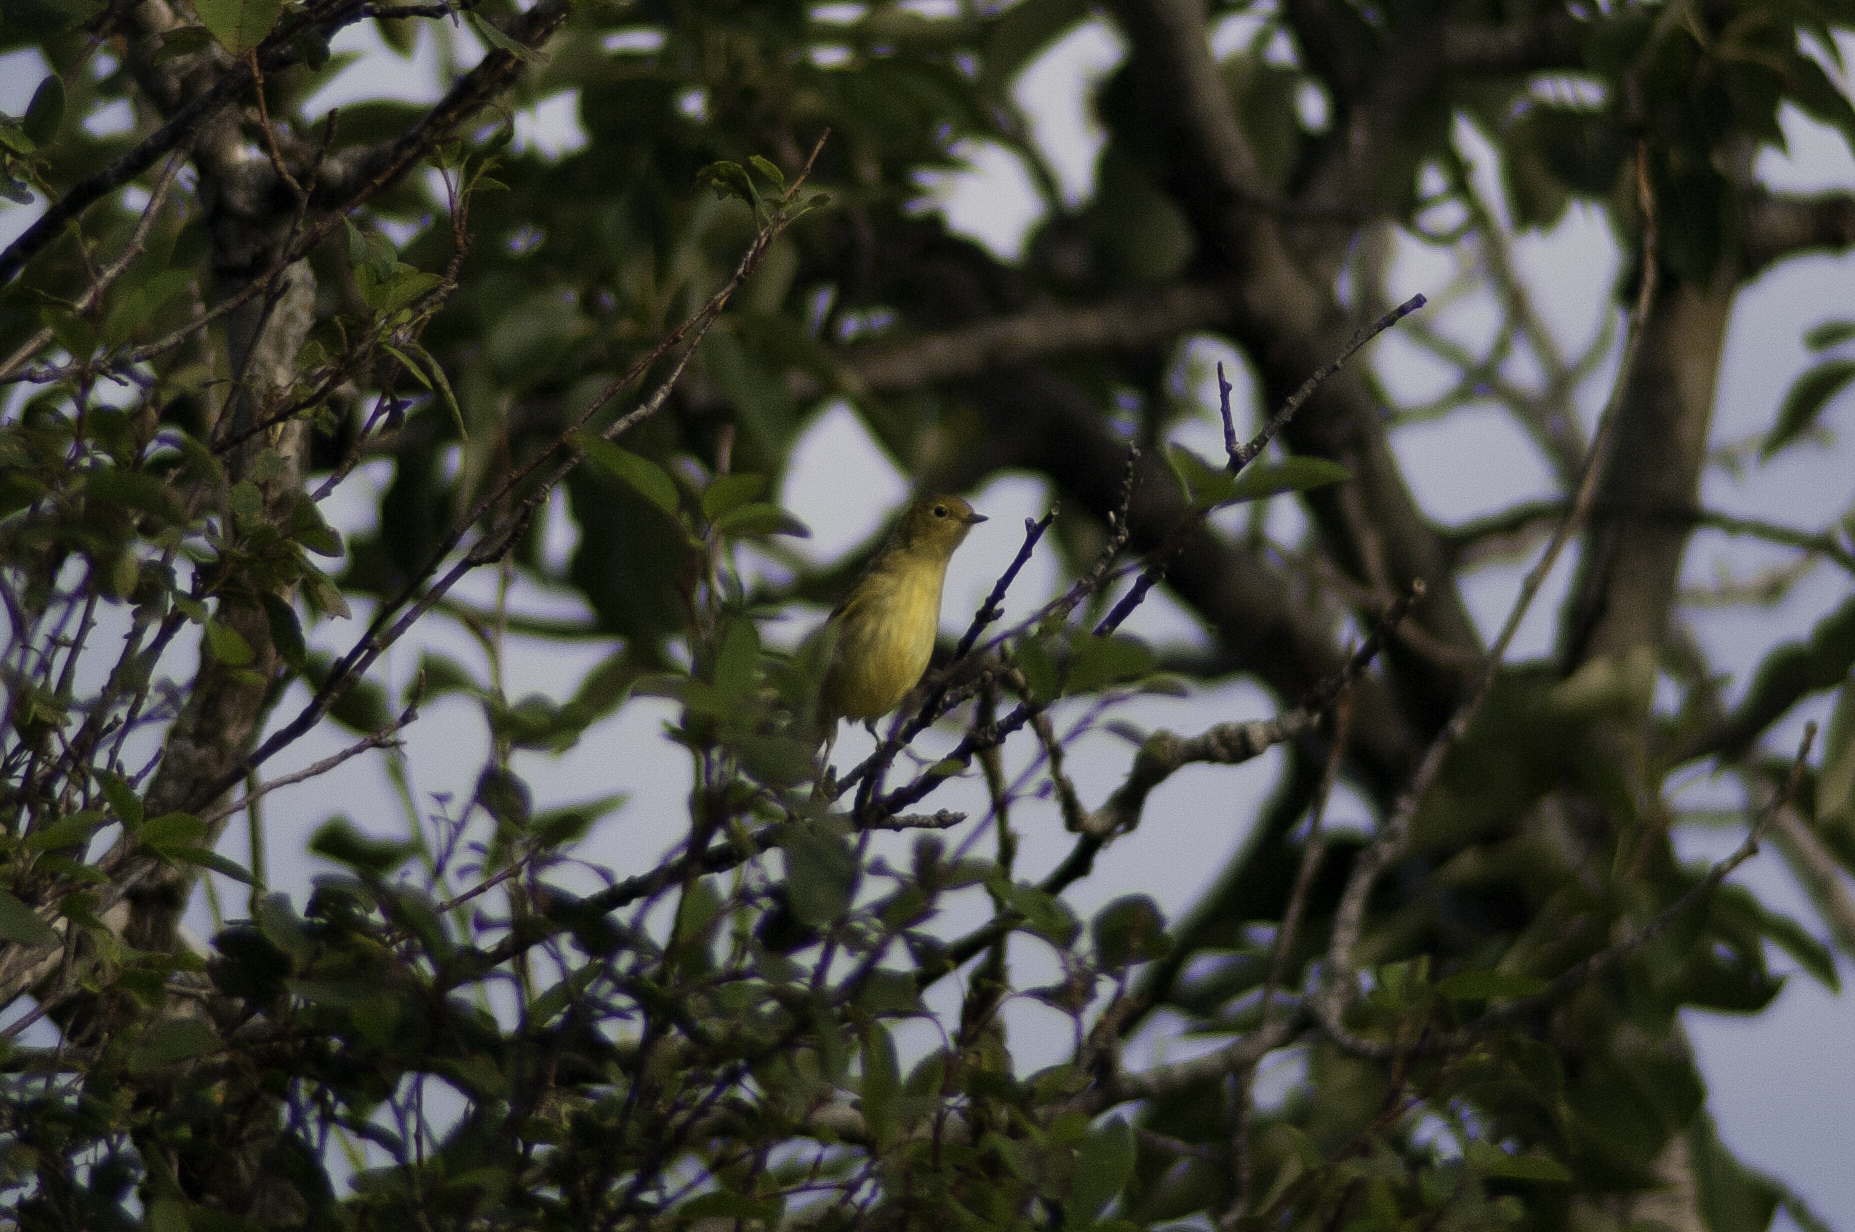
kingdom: Animalia
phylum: Chordata
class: Aves
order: Passeriformes
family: Parulidae
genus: Setophaga
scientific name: Setophaga petechia
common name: Yellow warbler
